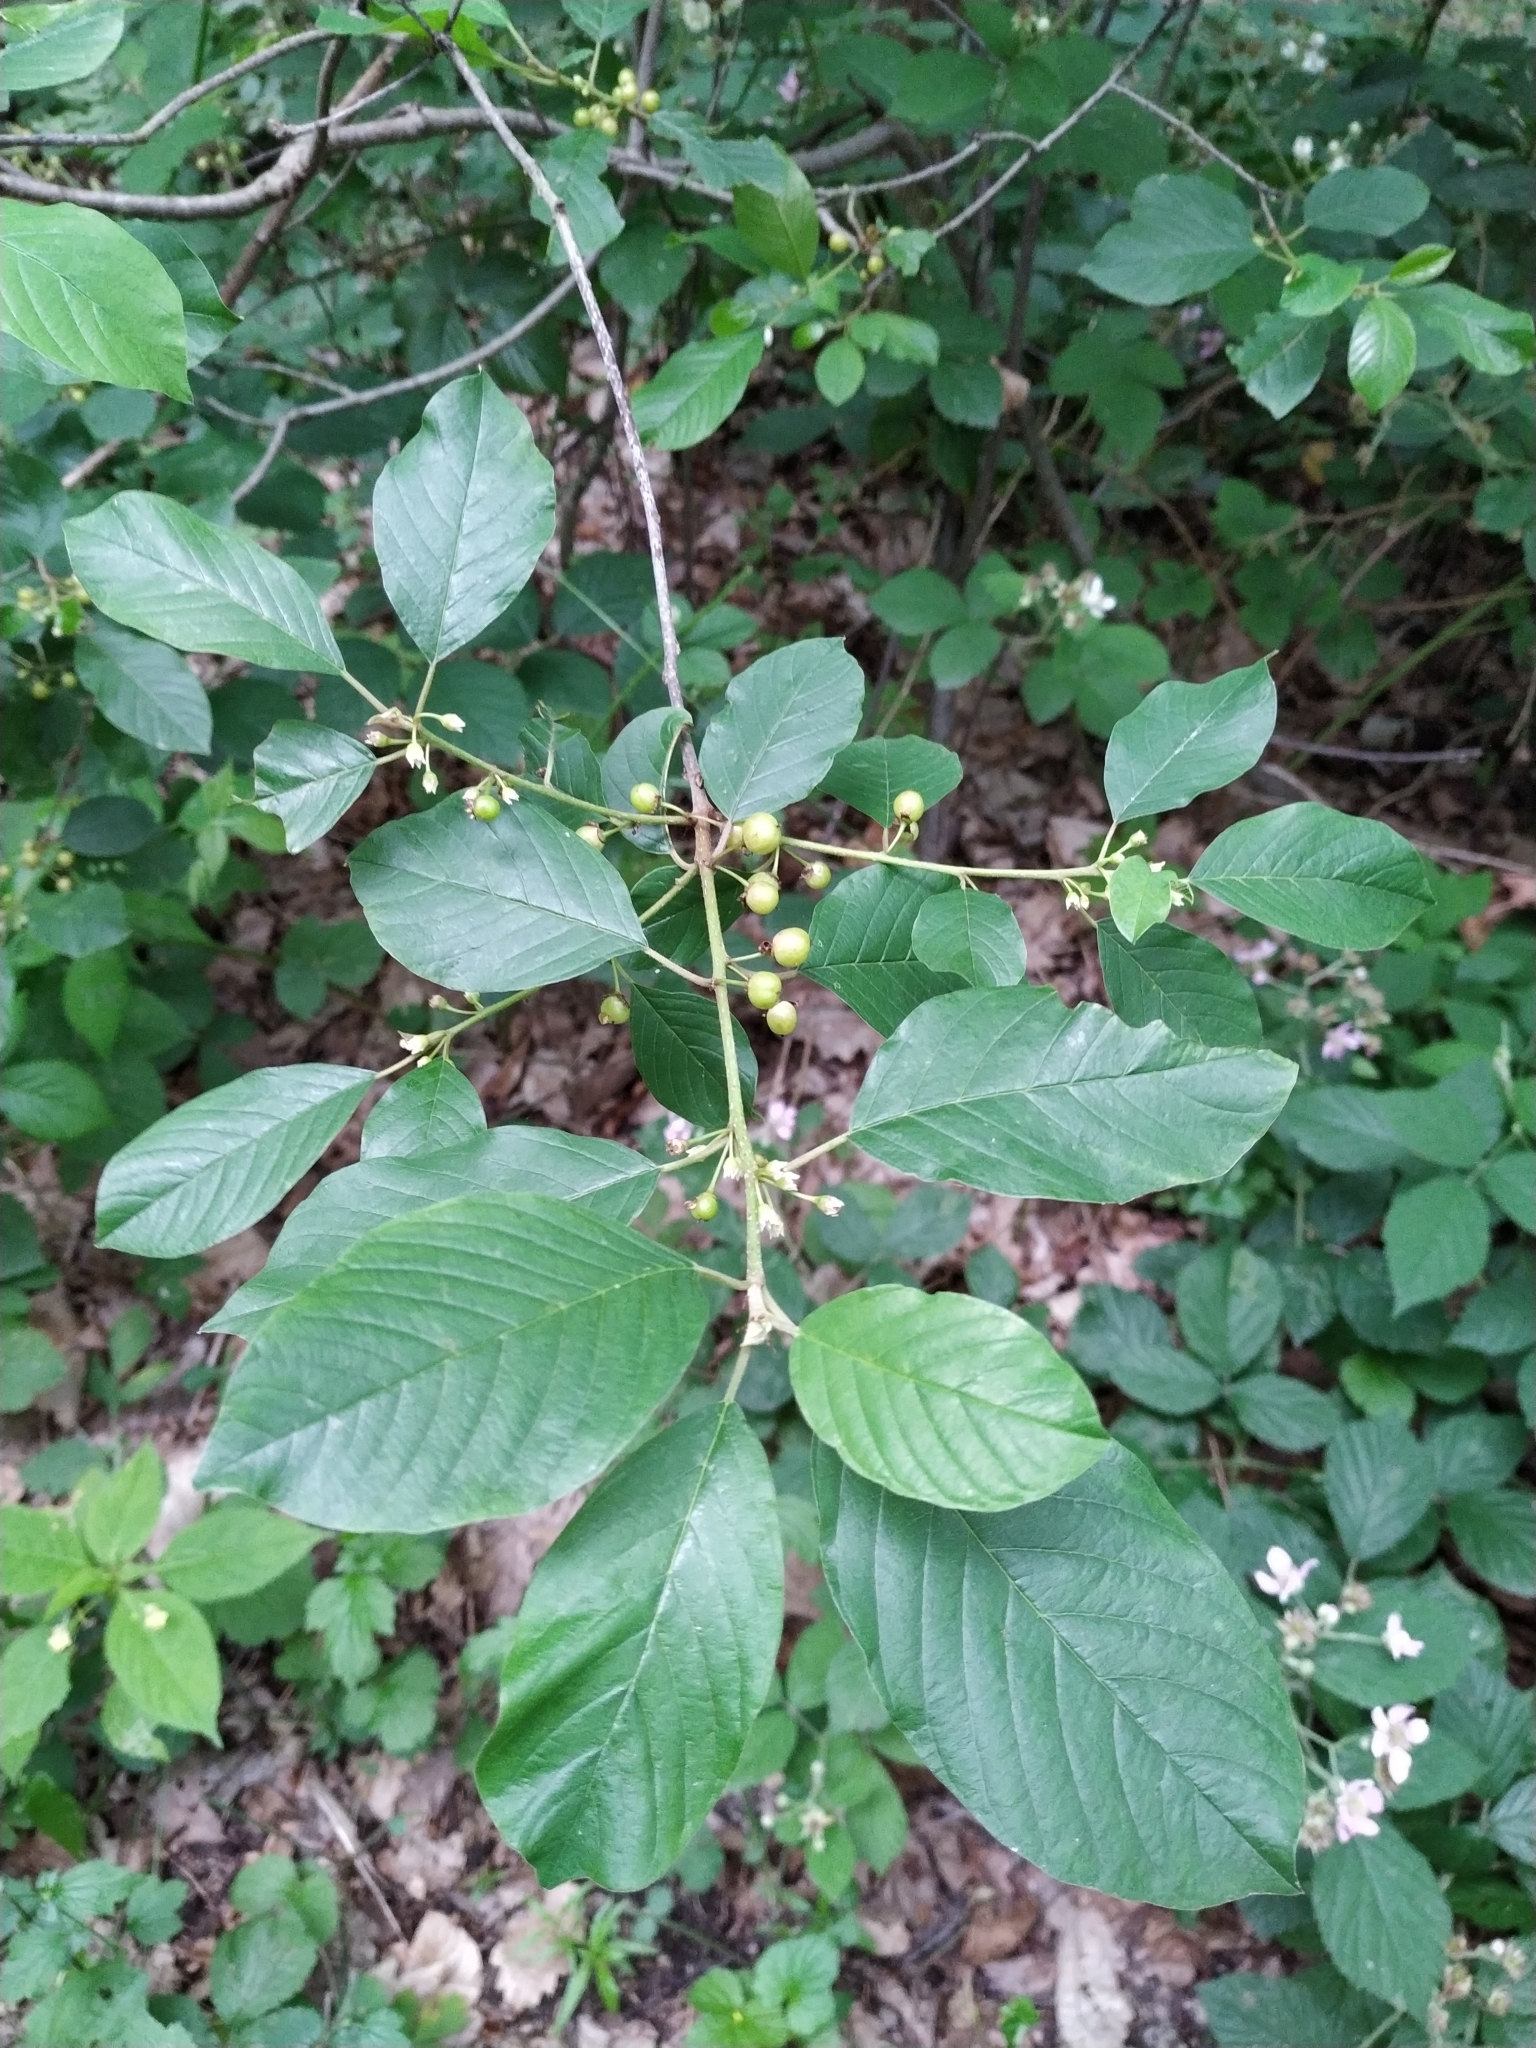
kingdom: Plantae
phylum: Tracheophyta
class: Magnoliopsida
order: Rosales
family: Rhamnaceae
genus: Frangula
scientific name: Frangula alnus
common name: Alder buckthorn
